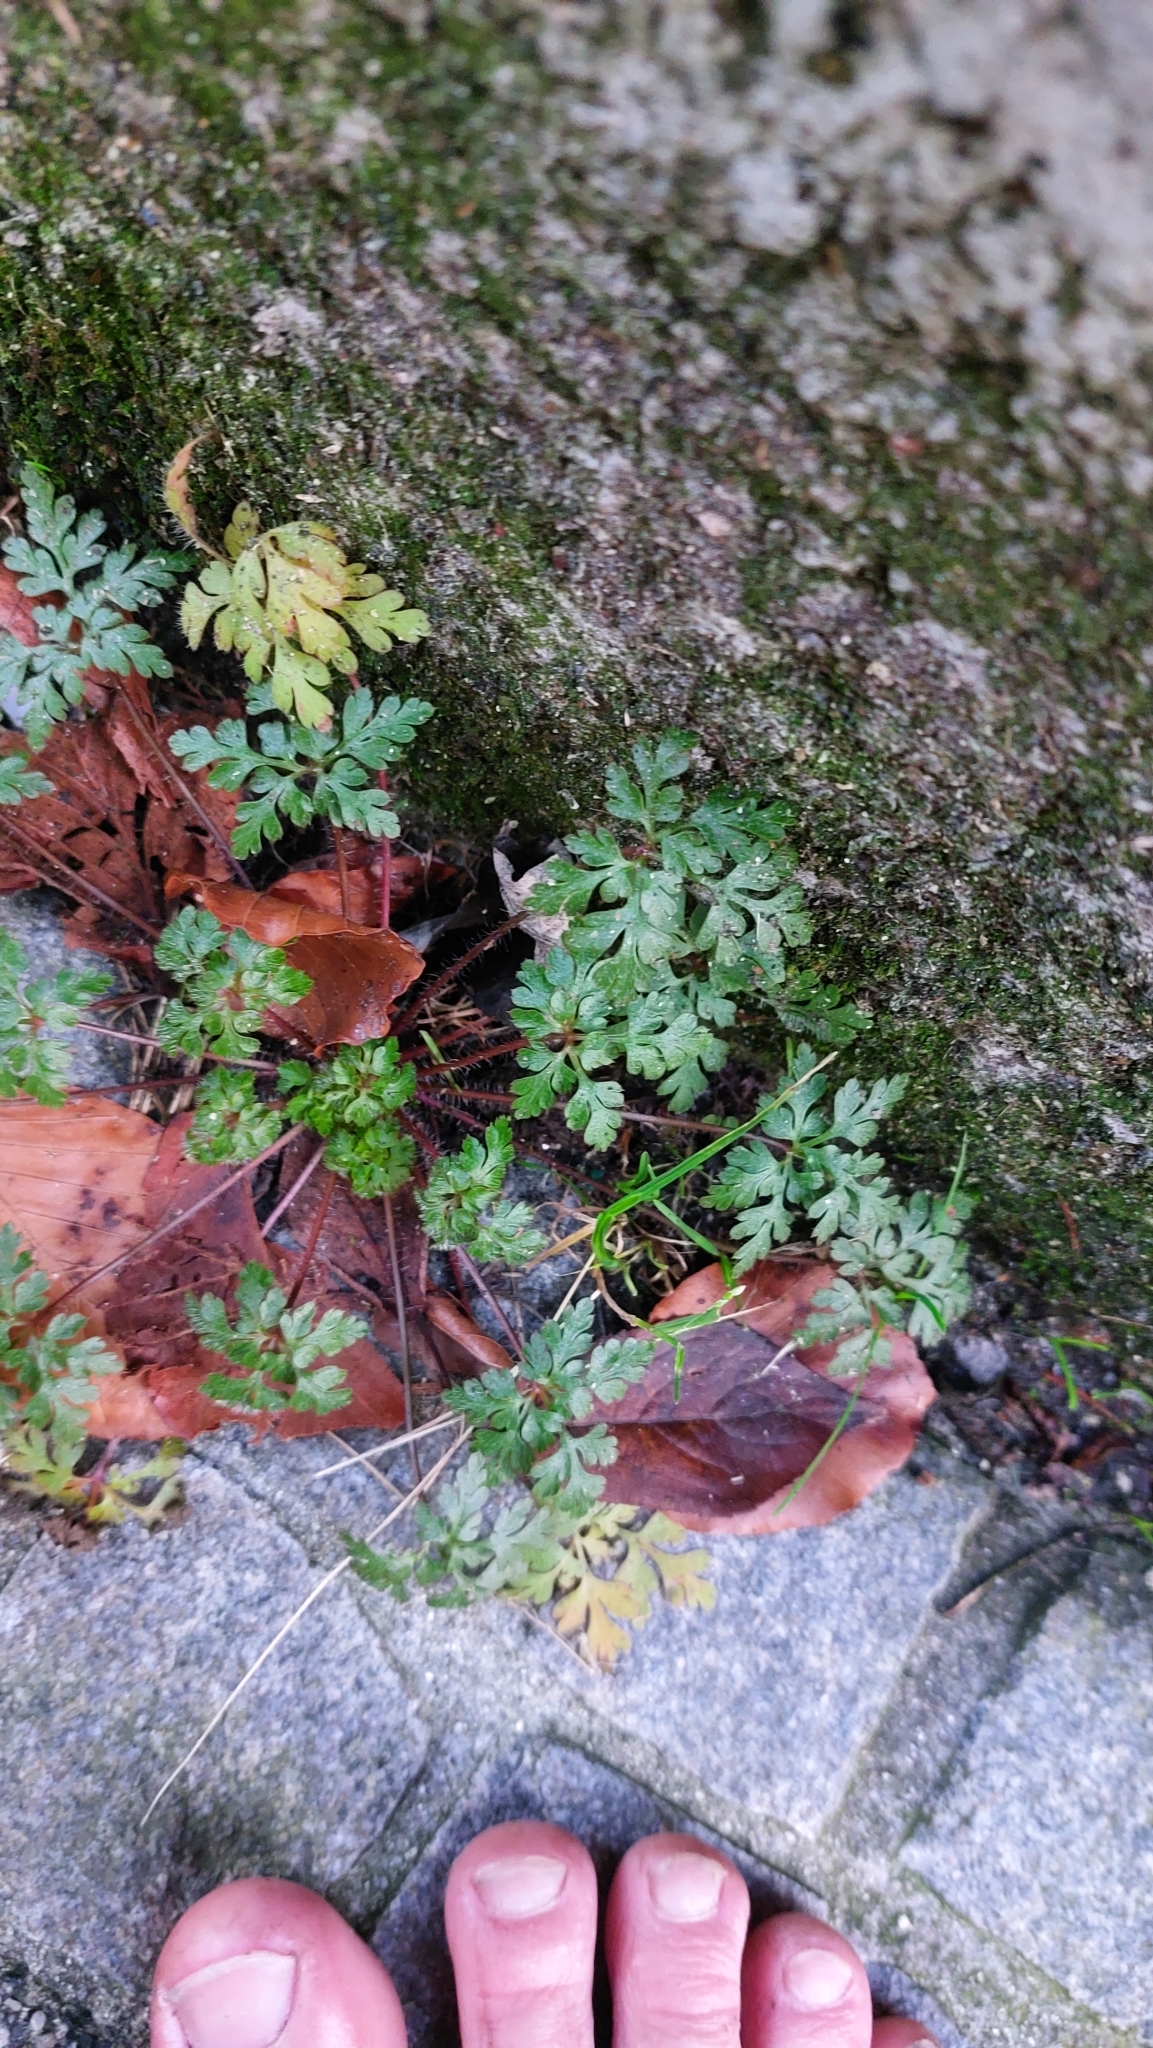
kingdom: Plantae
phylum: Tracheophyta
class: Magnoliopsida
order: Geraniales
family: Geraniaceae
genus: Geranium
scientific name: Geranium robertianum
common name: Herb-robert
